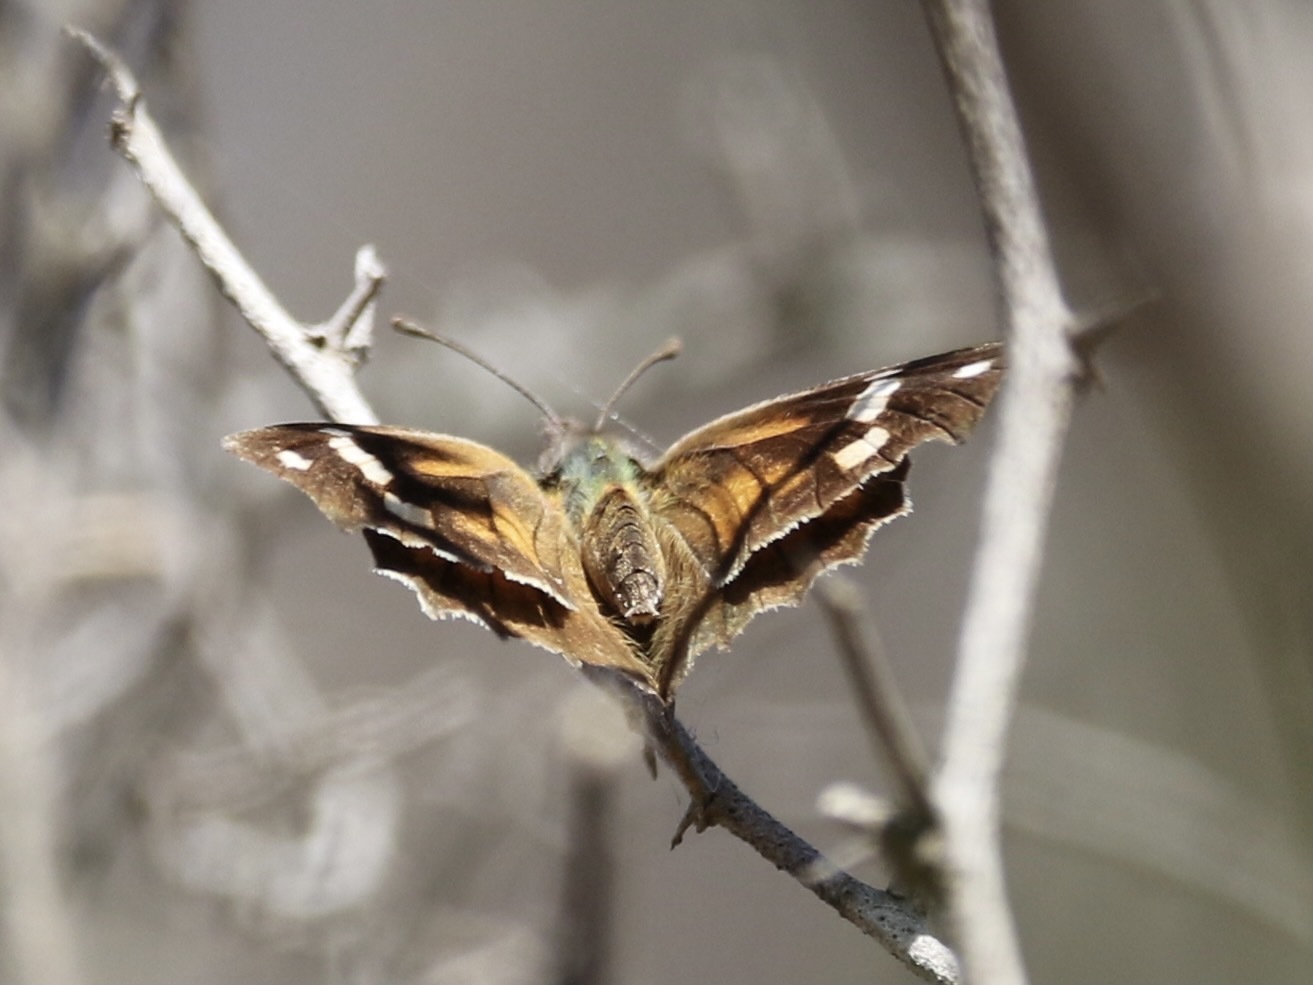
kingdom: Animalia
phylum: Arthropoda
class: Insecta
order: Lepidoptera
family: Nymphalidae
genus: Libytheana
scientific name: Libytheana carinenta
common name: American snout
